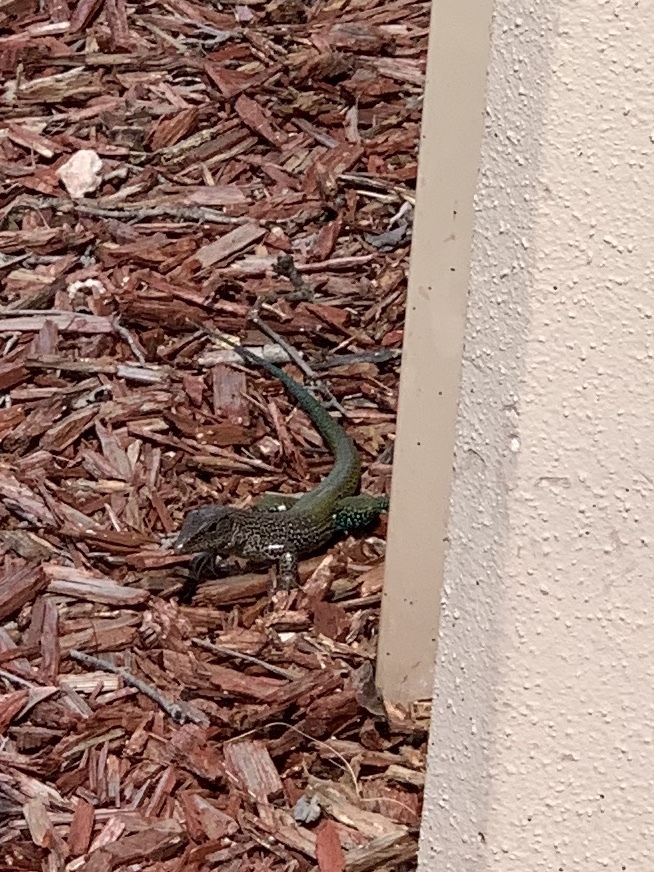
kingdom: Animalia
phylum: Chordata
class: Squamata
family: Teiidae
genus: Ameiva
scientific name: Ameiva ameiva
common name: Giant ameiva
